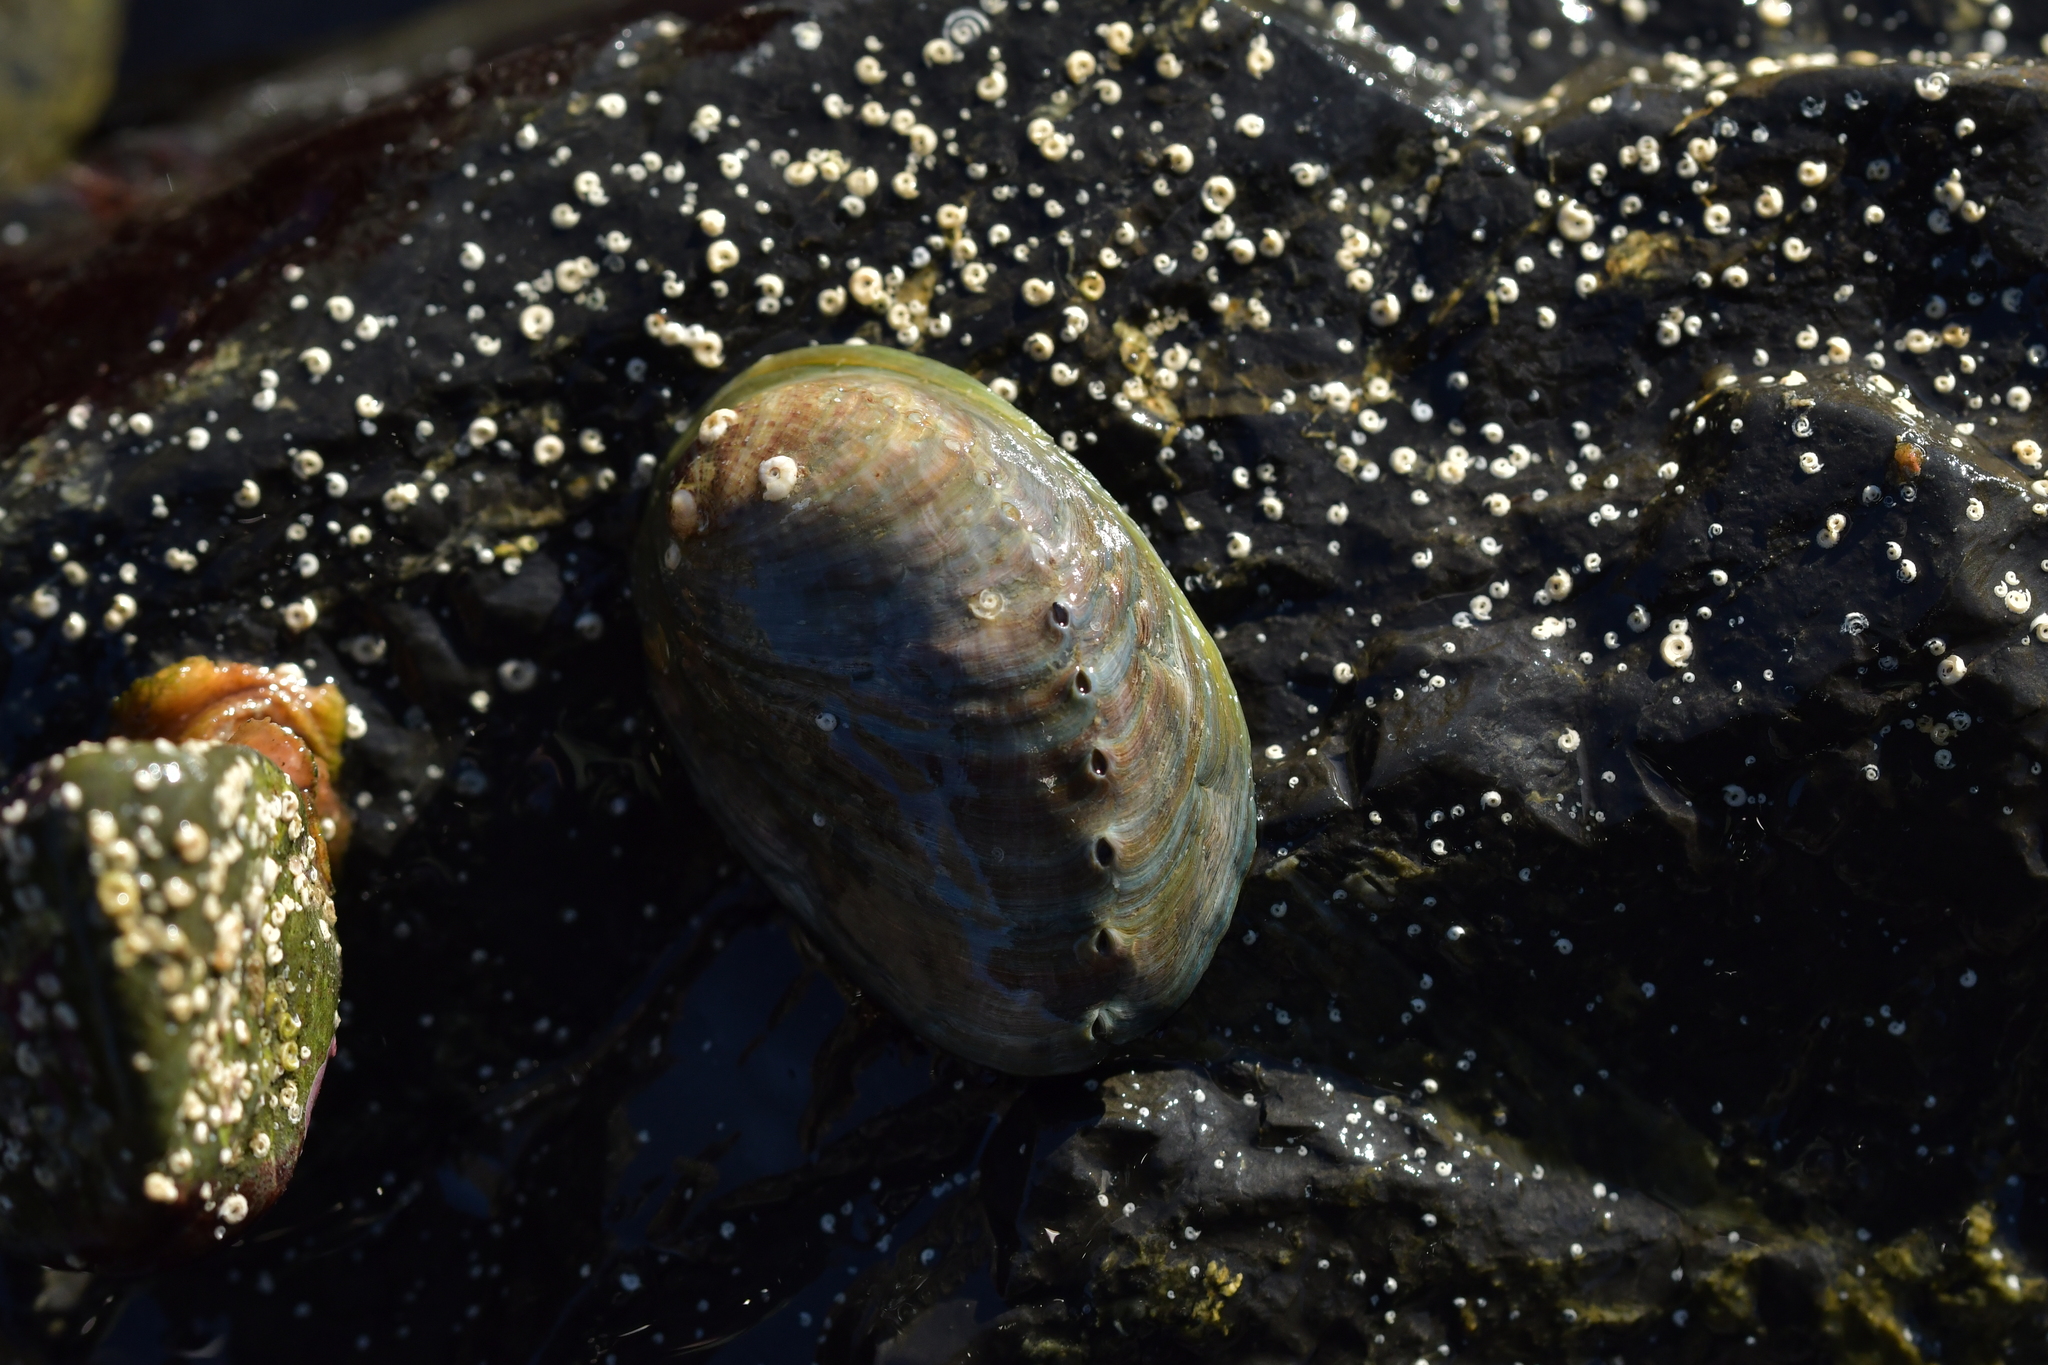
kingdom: Animalia
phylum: Mollusca
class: Gastropoda
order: Lepetellida
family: Haliotidae
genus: Haliotis
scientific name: Haliotis iris
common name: Abalone
